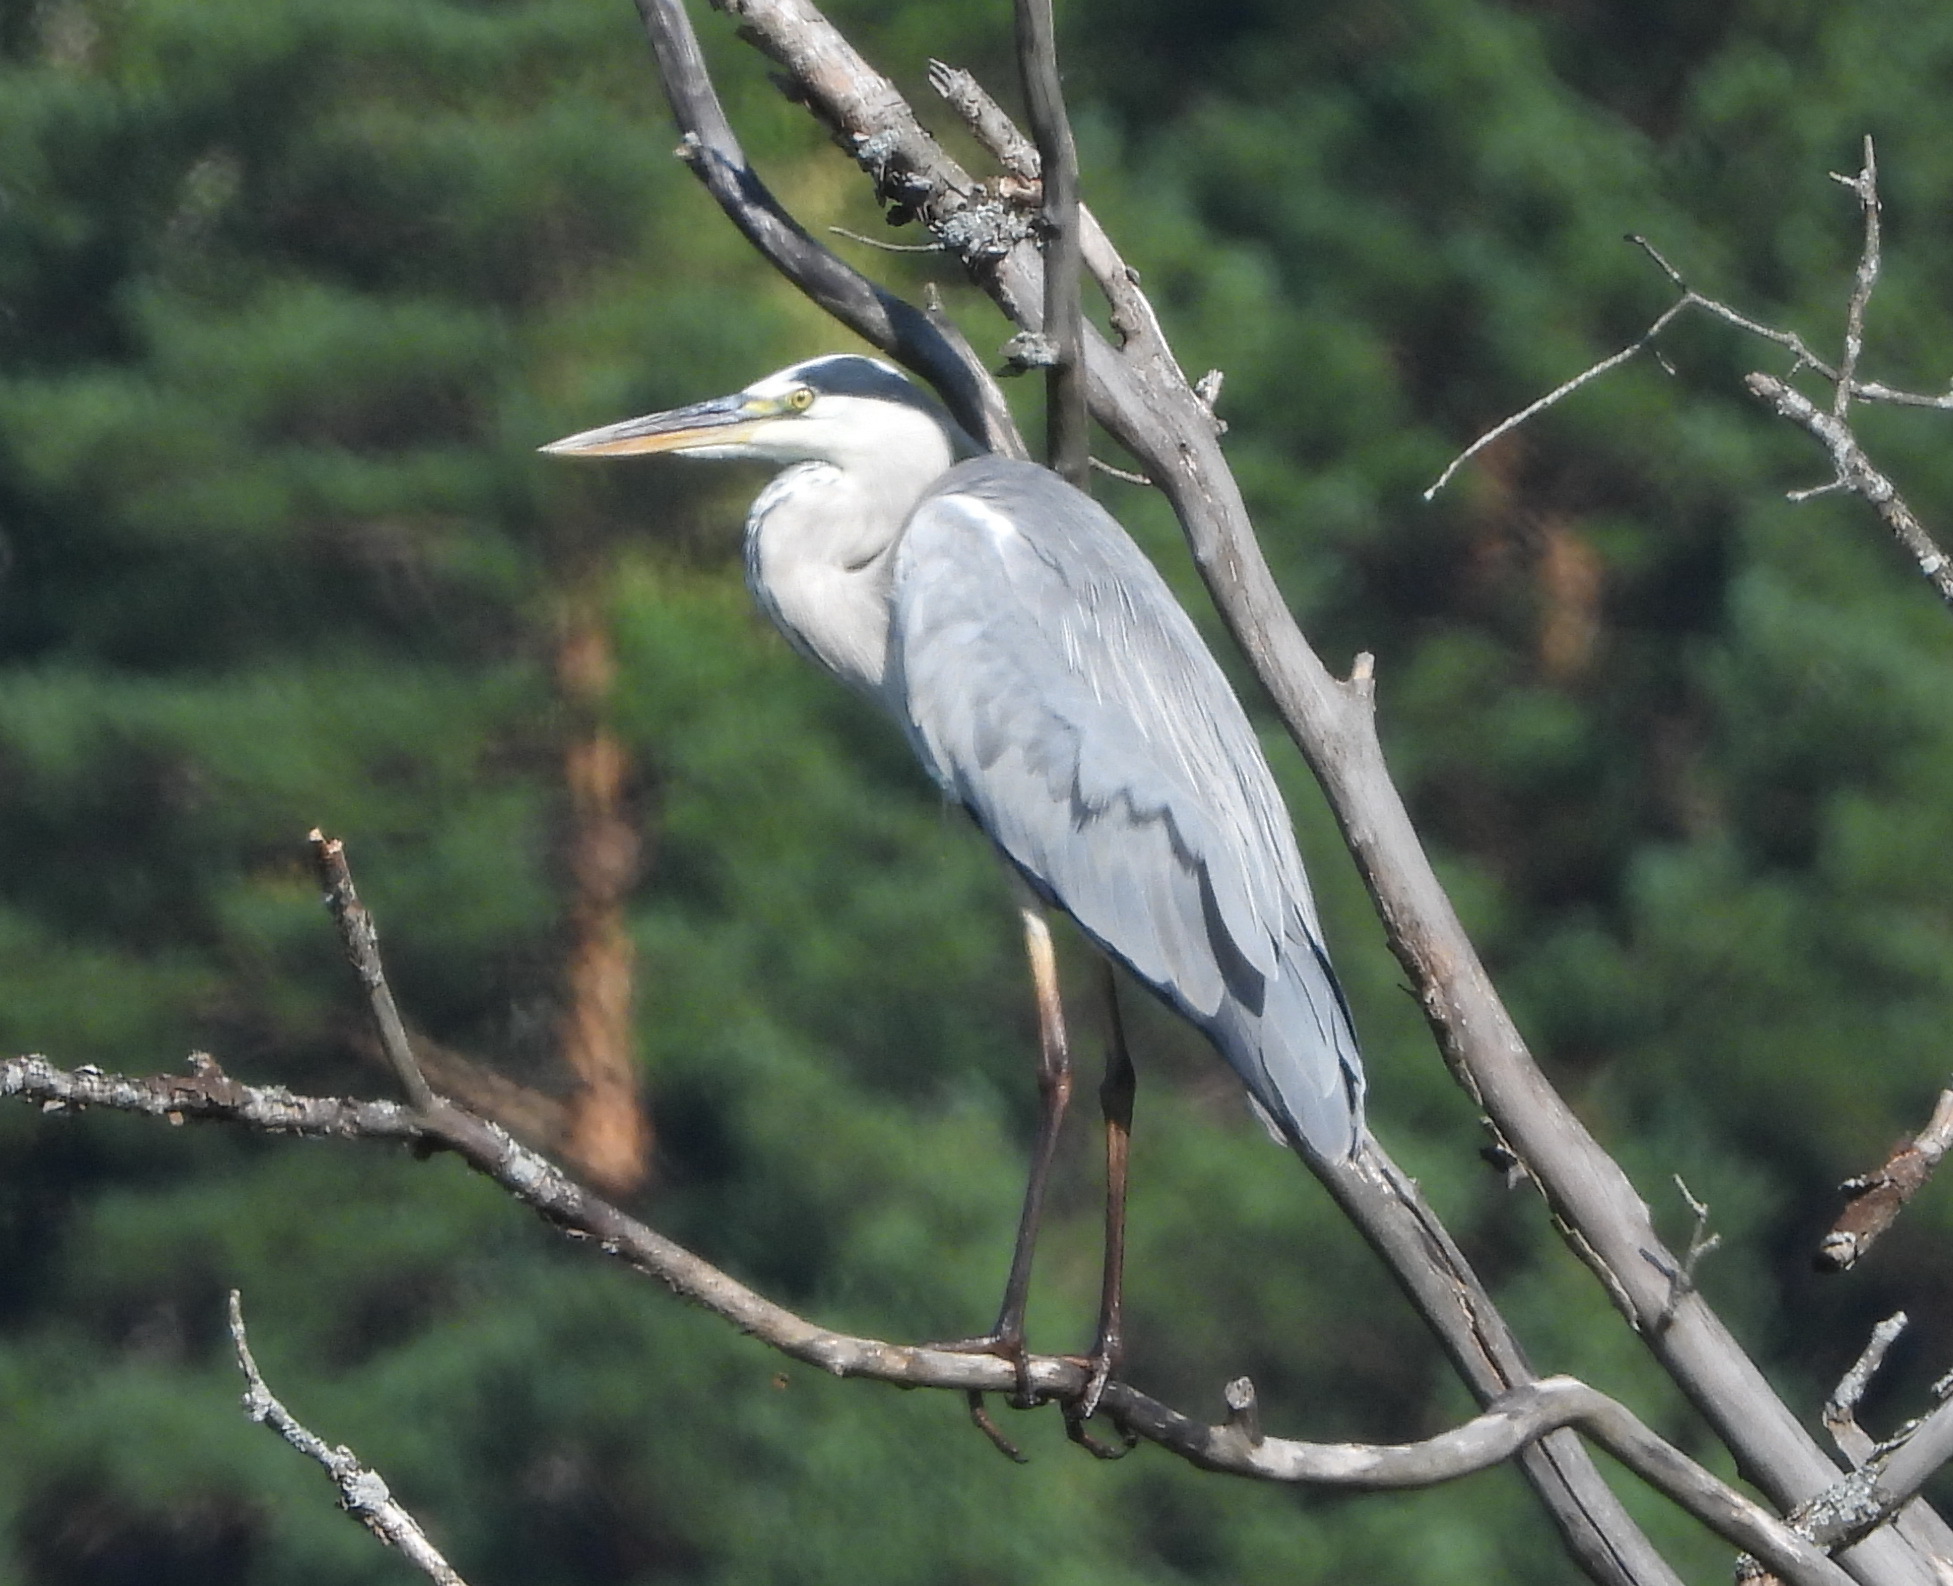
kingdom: Animalia
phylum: Chordata
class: Aves
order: Pelecaniformes
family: Ardeidae
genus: Ardea
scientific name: Ardea cinerea
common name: Grey heron
